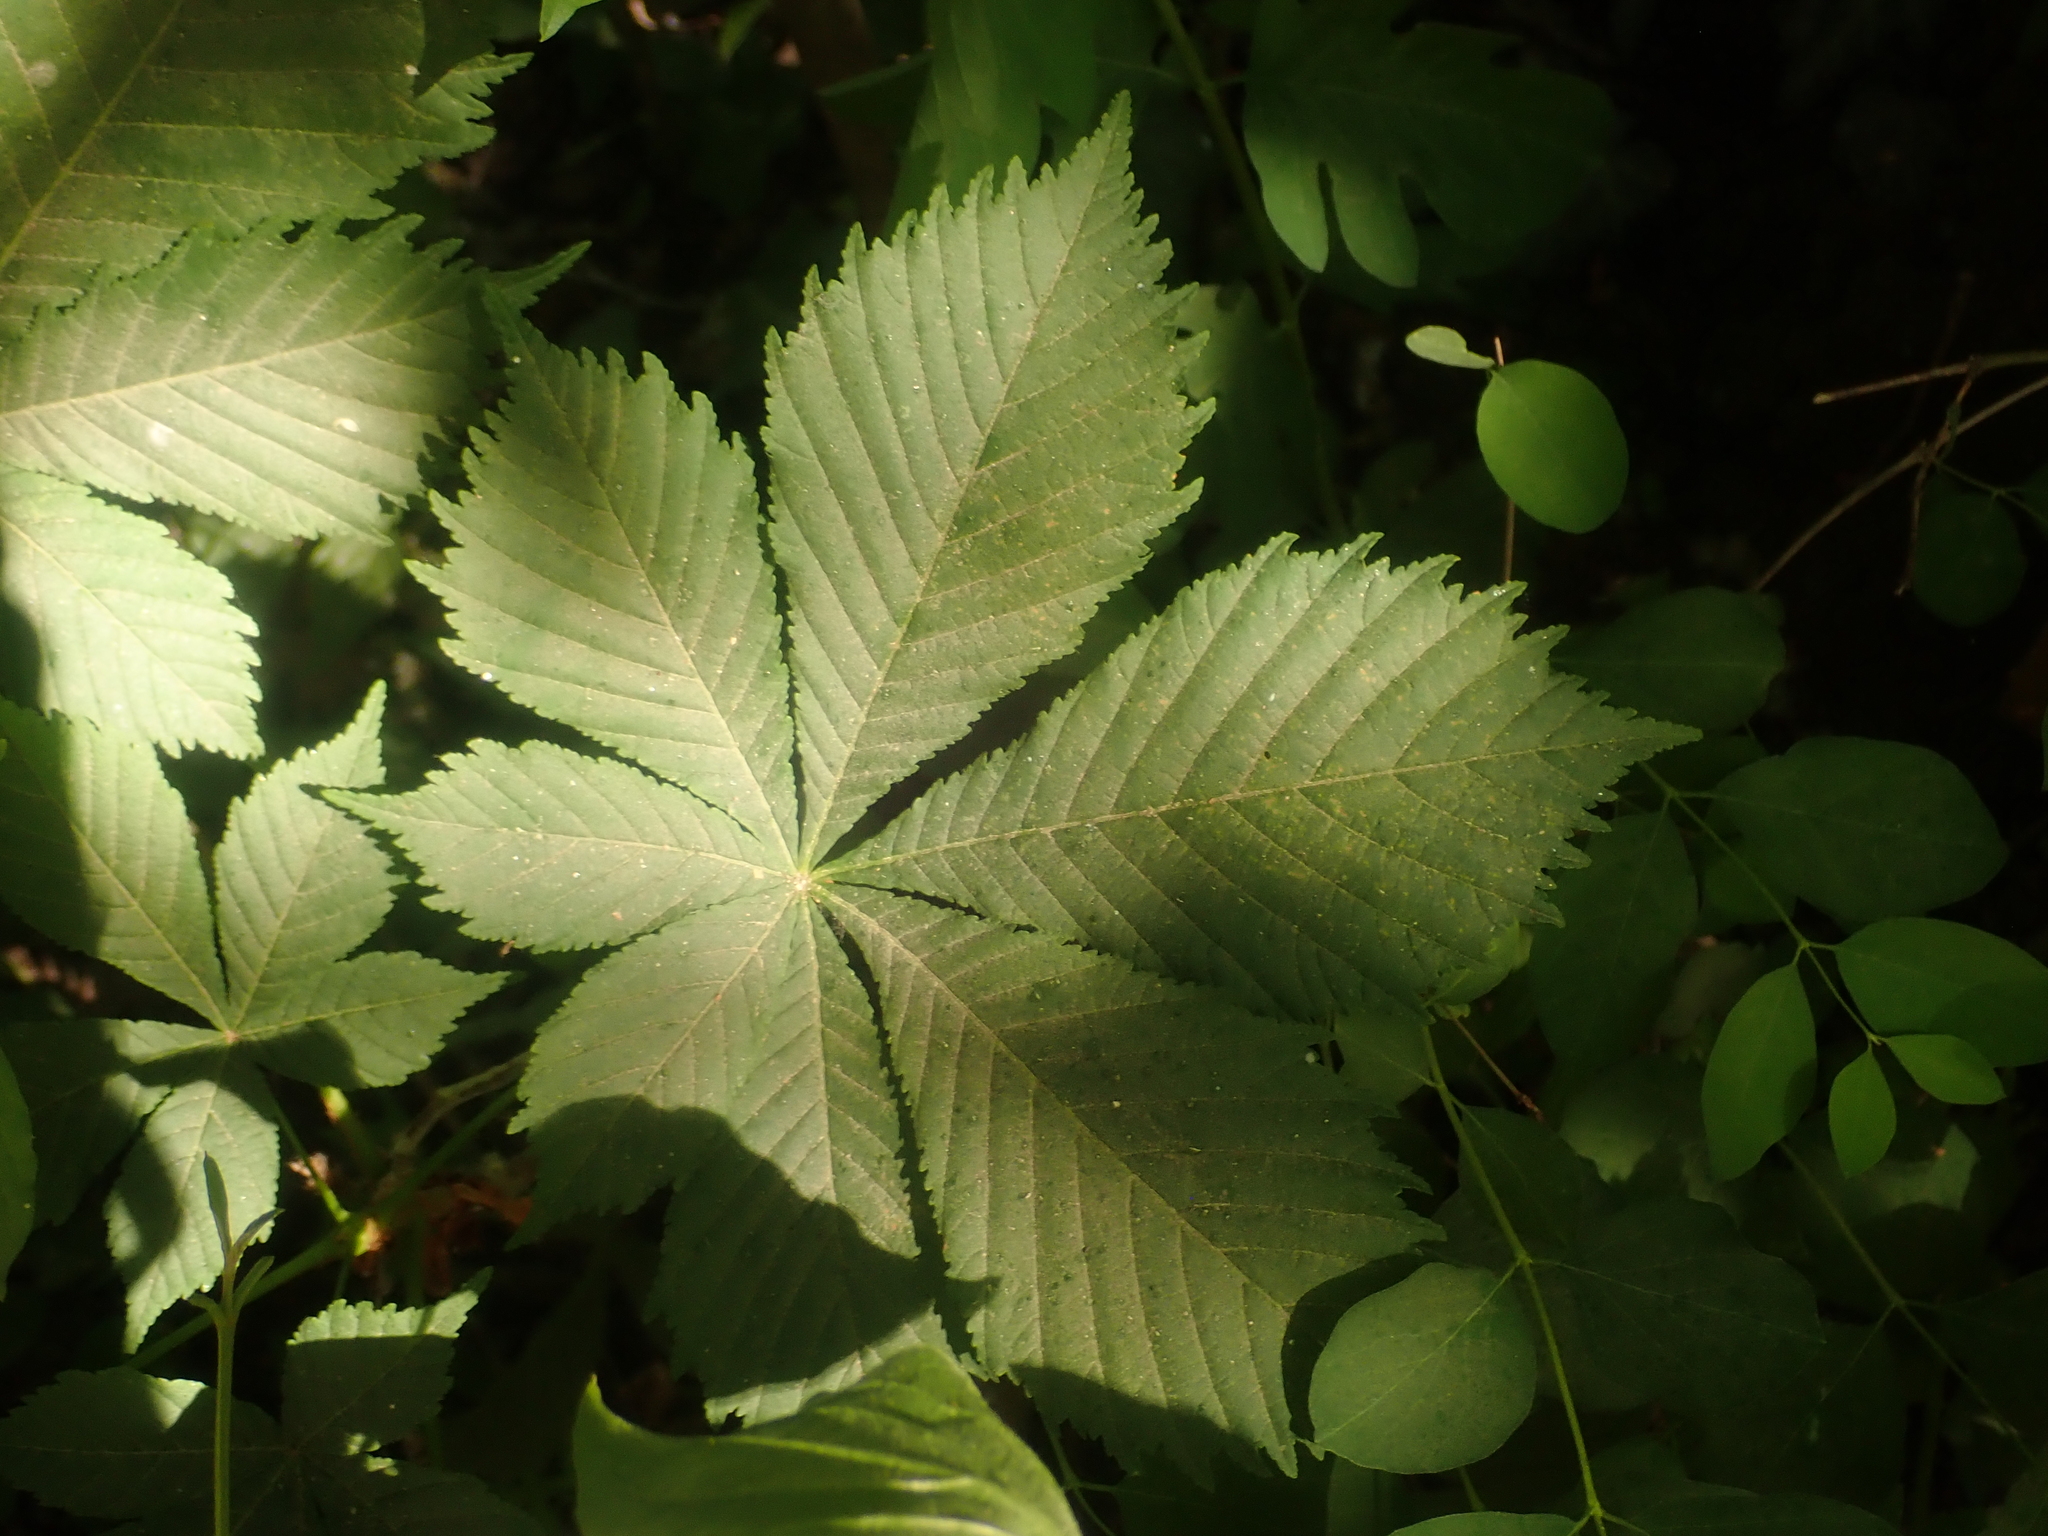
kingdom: Plantae
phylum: Tracheophyta
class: Magnoliopsida
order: Sapindales
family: Sapindaceae
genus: Aesculus
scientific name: Aesculus hippocastanum
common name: Horse-chestnut
